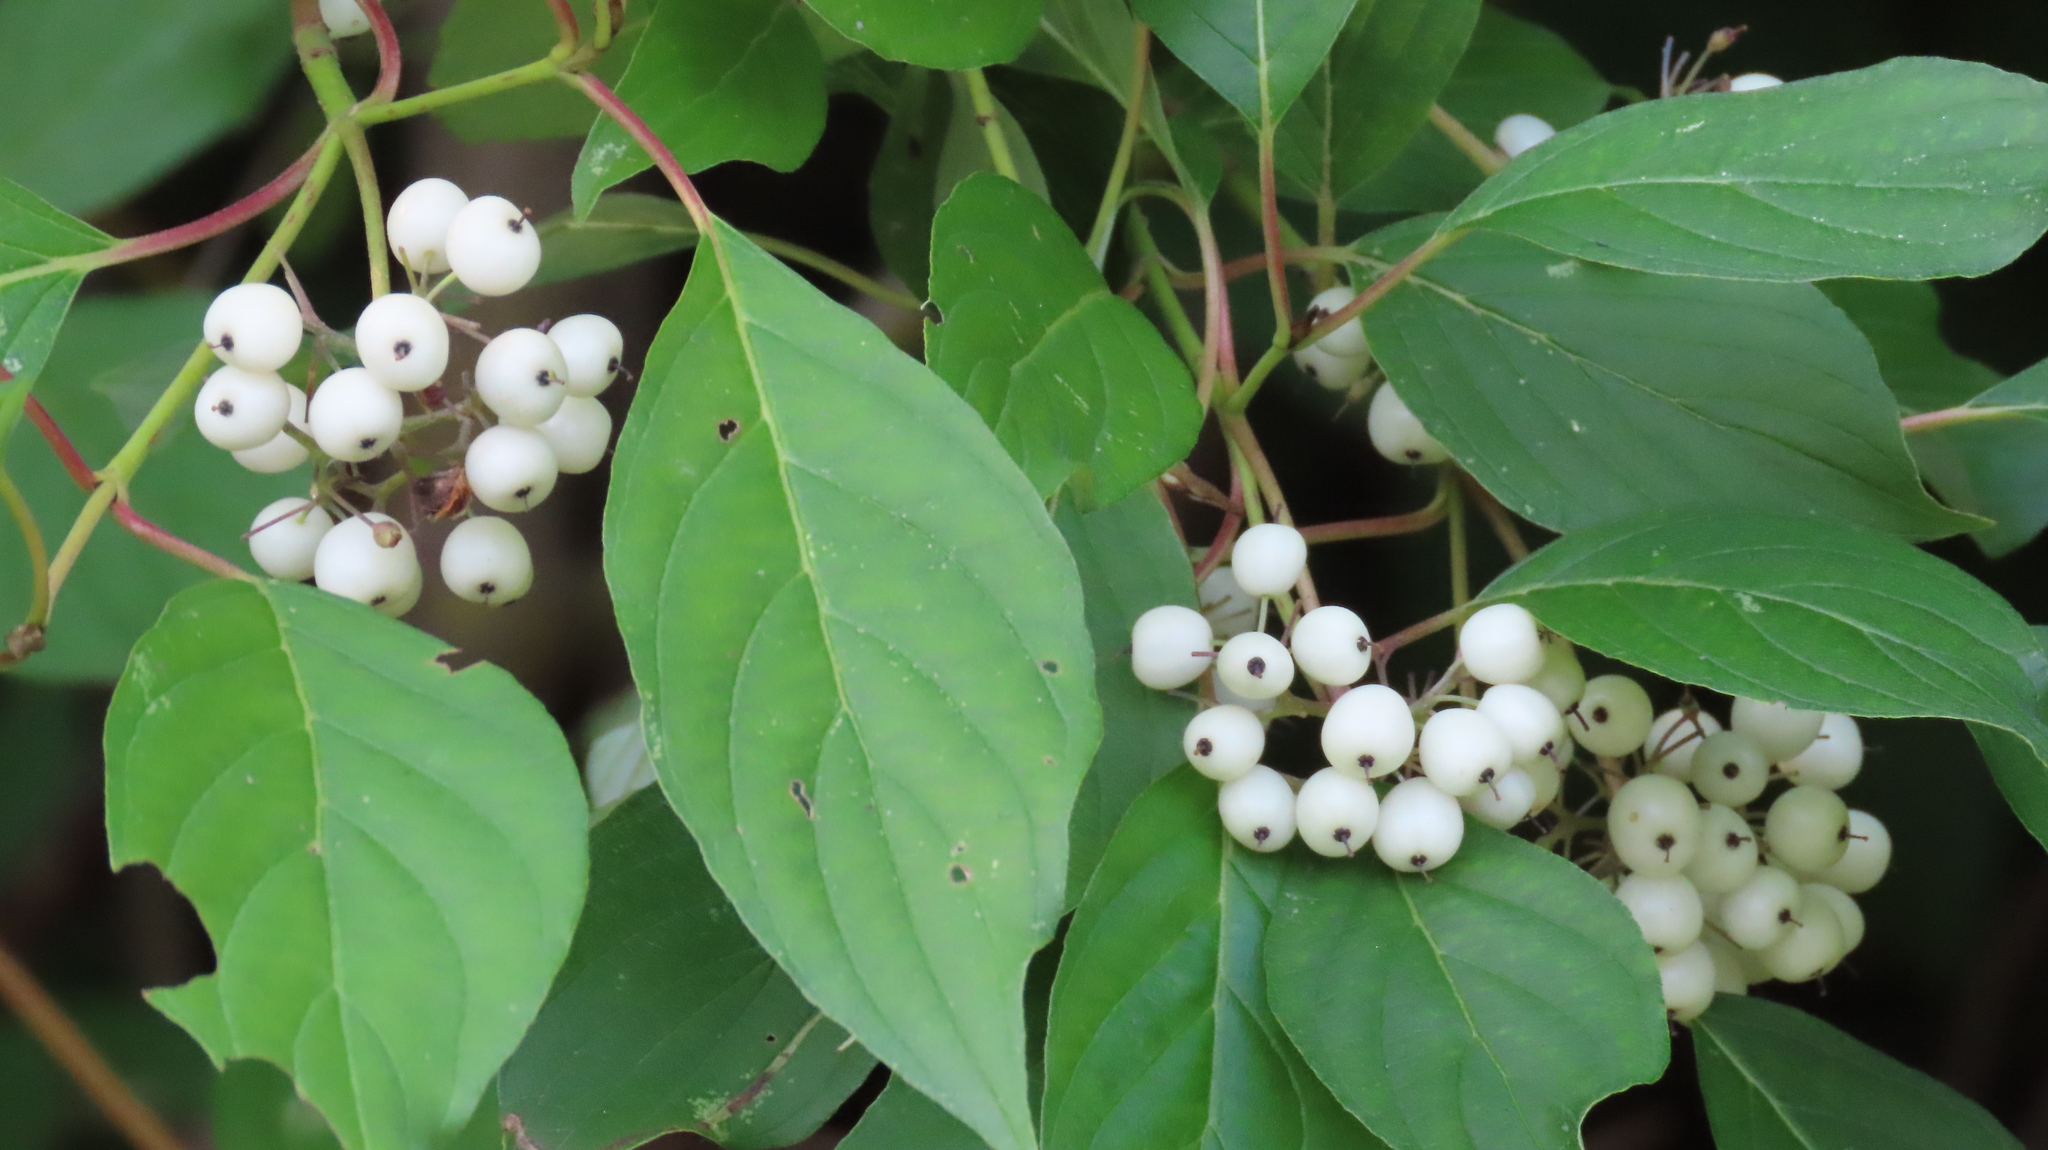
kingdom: Plantae
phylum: Tracheophyta
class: Magnoliopsida
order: Cornales
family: Cornaceae
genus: Cornus
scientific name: Cornus sericea
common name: Red-osier dogwood
